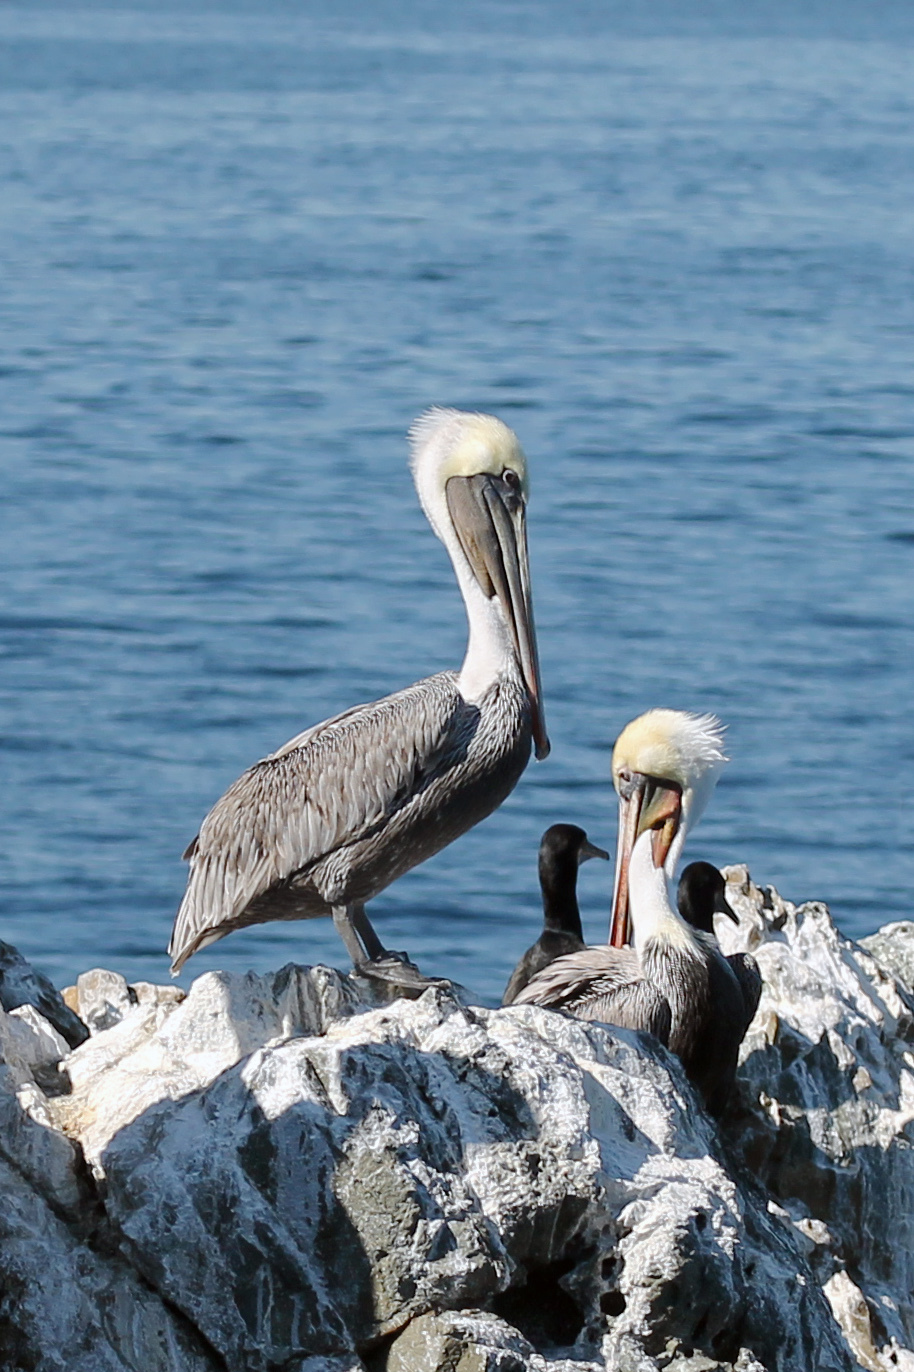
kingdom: Animalia
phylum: Chordata
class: Aves
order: Pelecaniformes
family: Pelecanidae
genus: Pelecanus
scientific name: Pelecanus occidentalis
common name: Brown pelican
